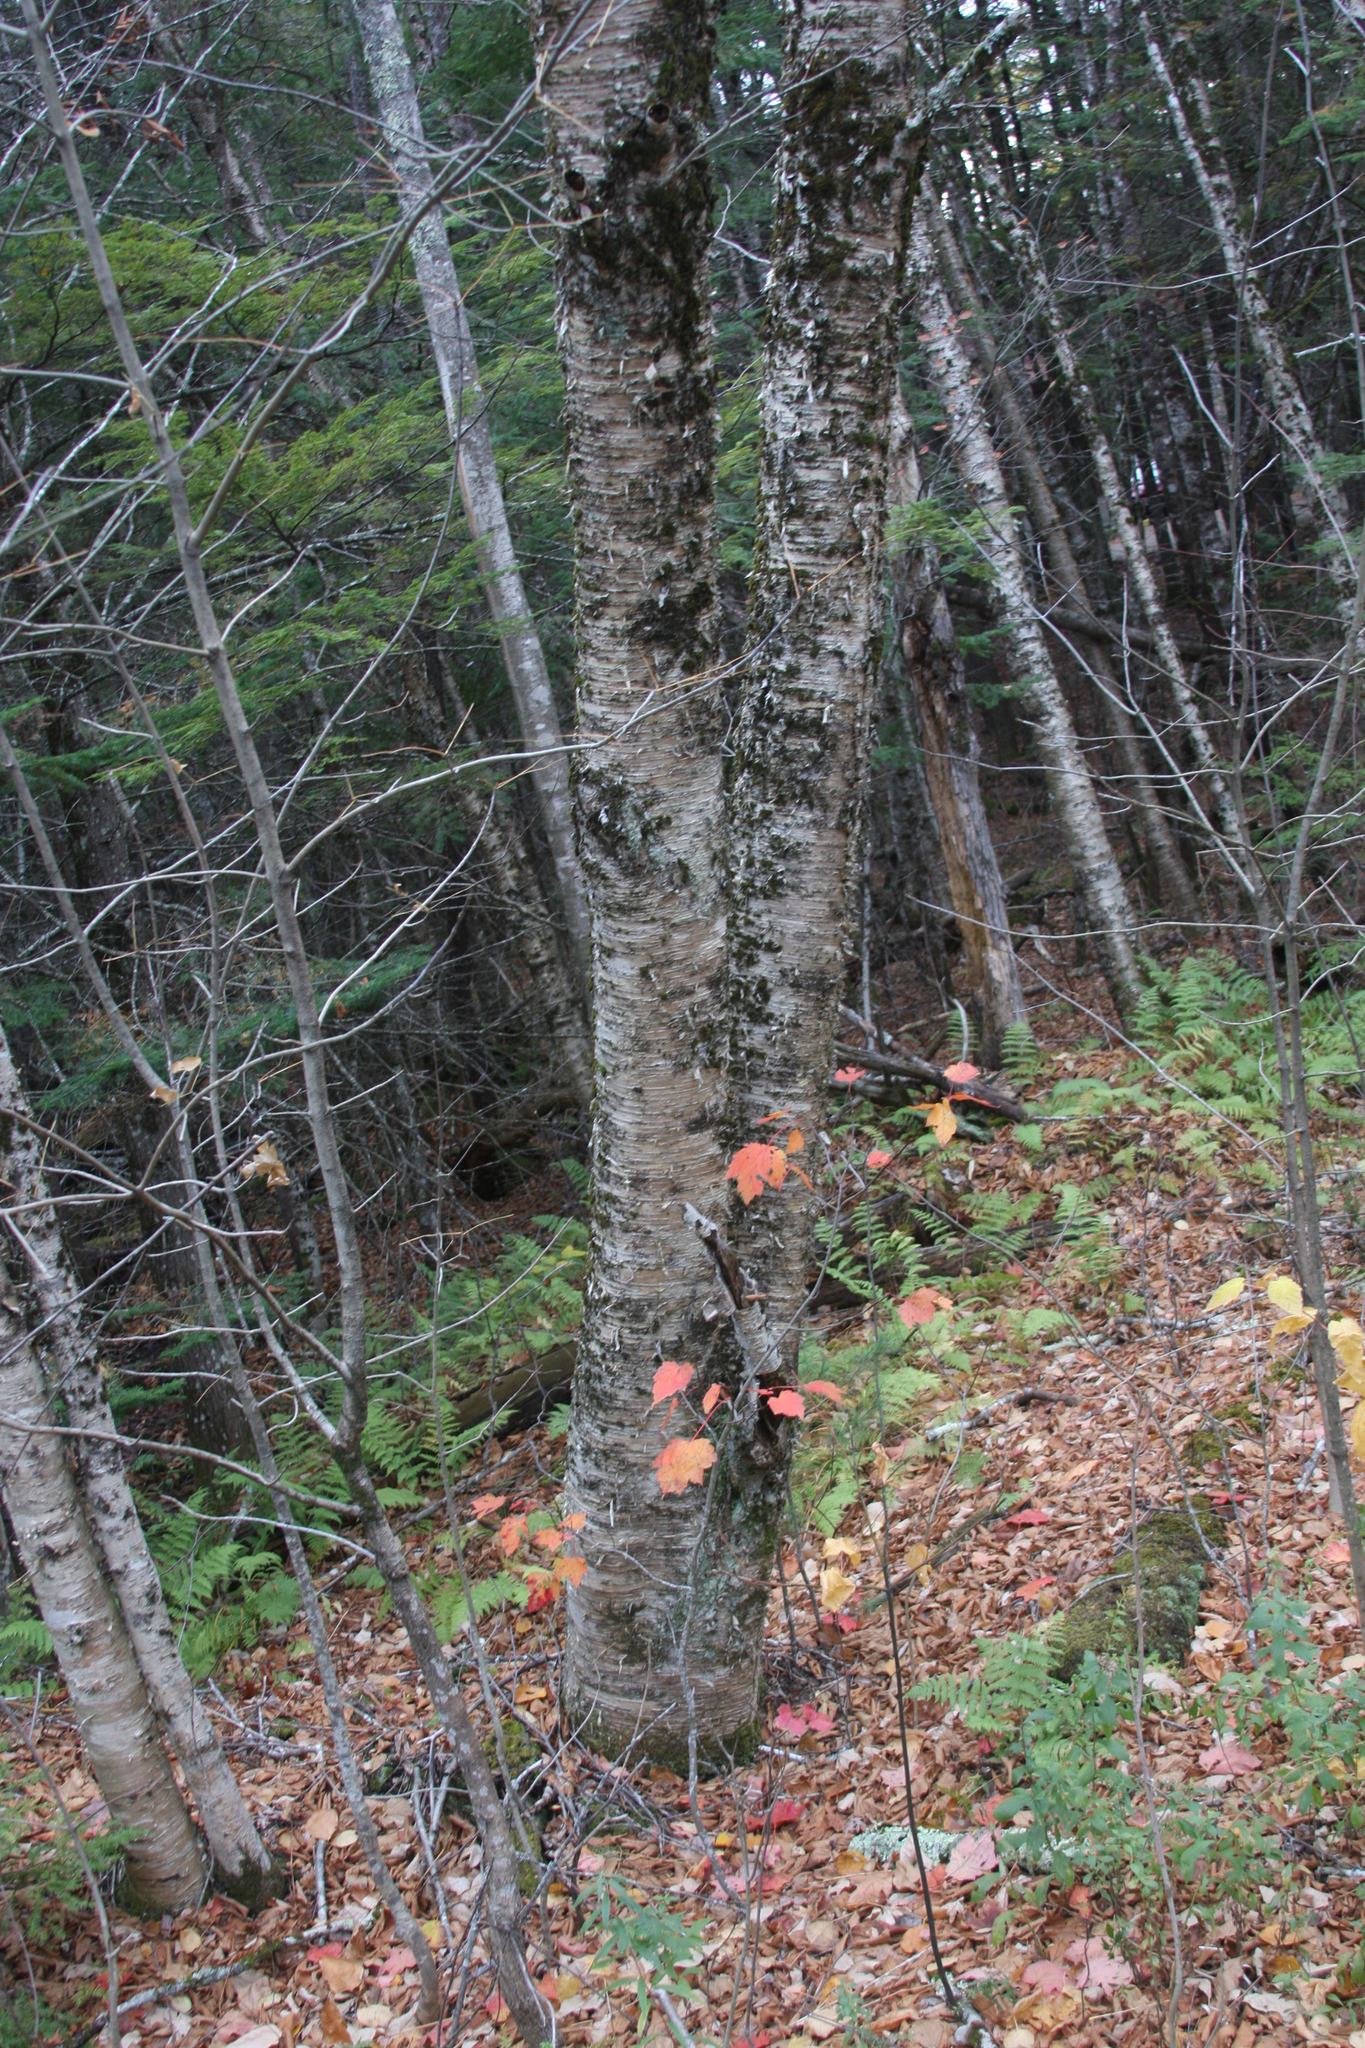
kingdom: Plantae
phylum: Tracheophyta
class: Magnoliopsida
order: Fagales
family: Betulaceae
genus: Betula
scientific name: Betula alleghaniensis
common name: Yellow birch
